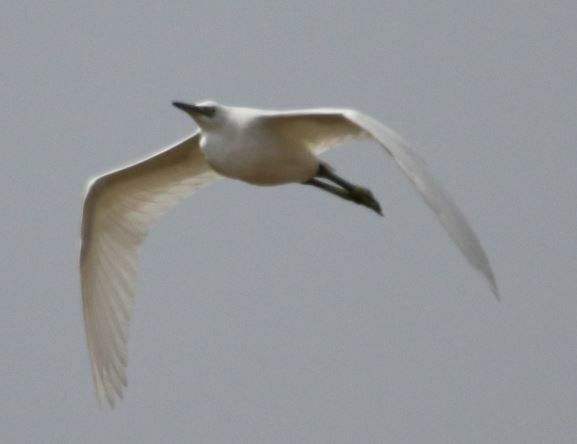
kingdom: Animalia
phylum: Chordata
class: Aves
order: Pelecaniformes
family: Ardeidae
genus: Egretta
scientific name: Egretta garzetta
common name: Little egret
